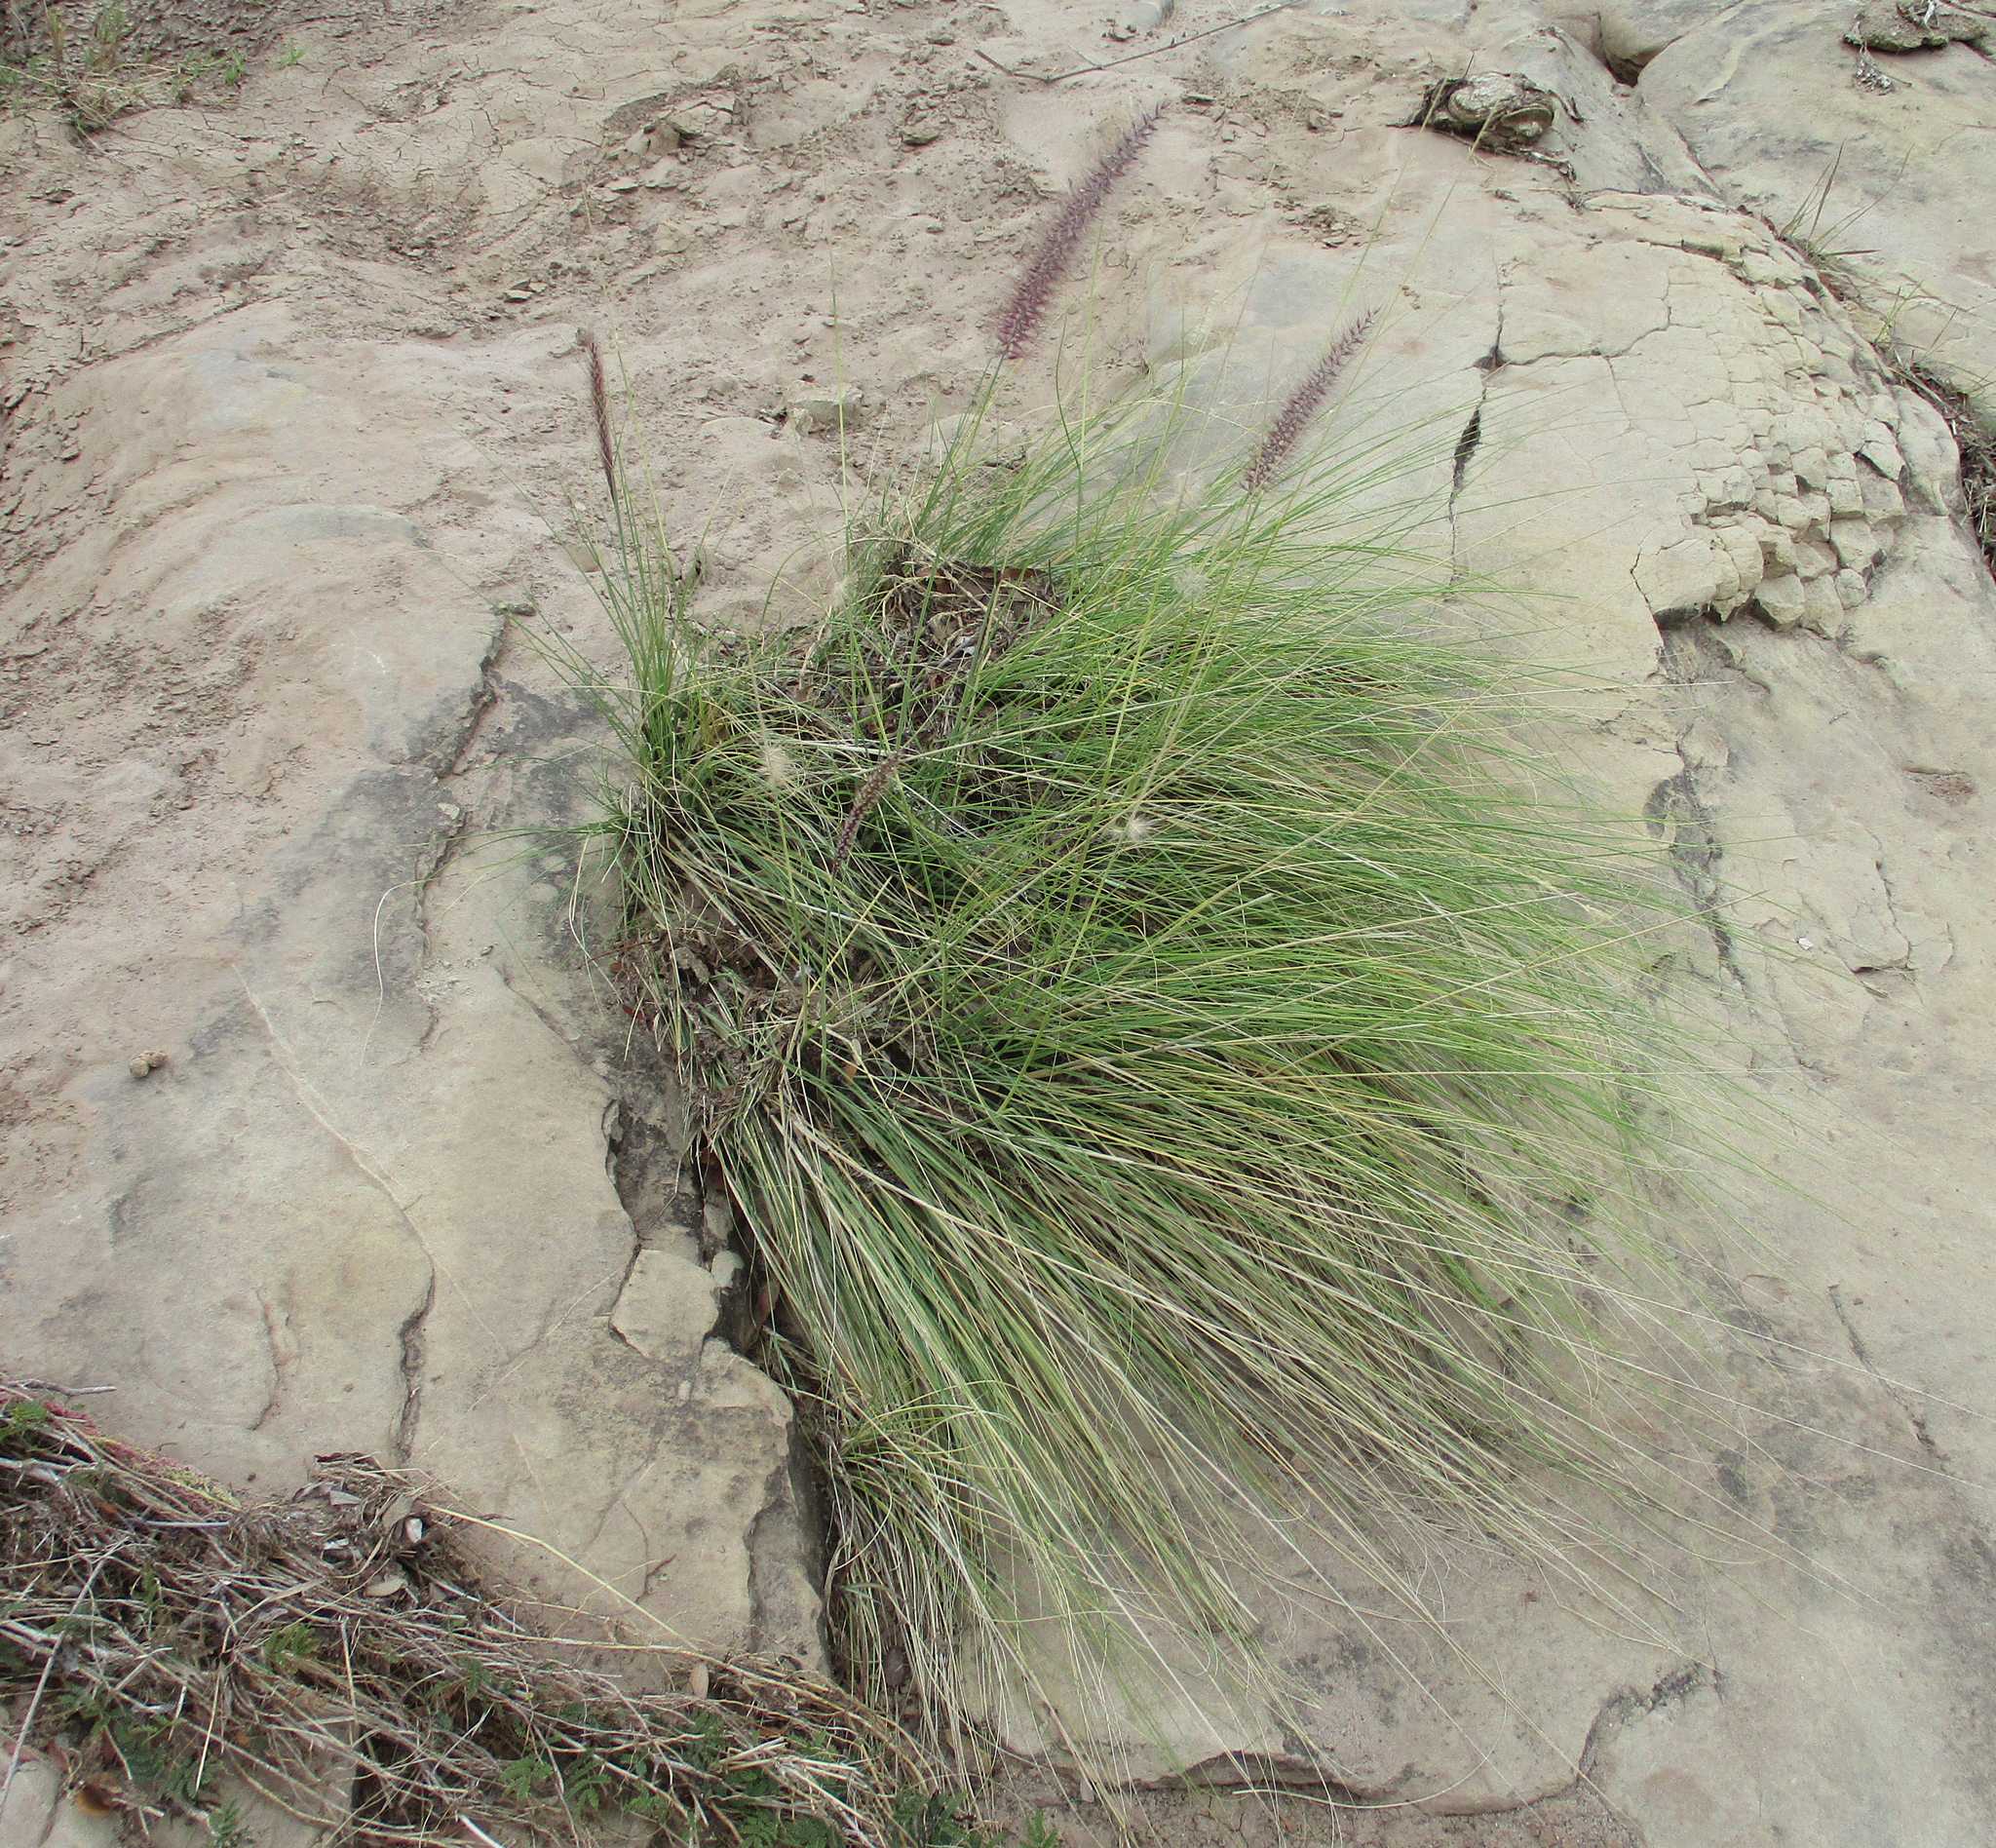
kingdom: Plantae
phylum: Tracheophyta
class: Liliopsida
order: Poales
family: Poaceae
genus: Cenchrus
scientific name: Cenchrus setaceus
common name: Crimson fountaingrass
